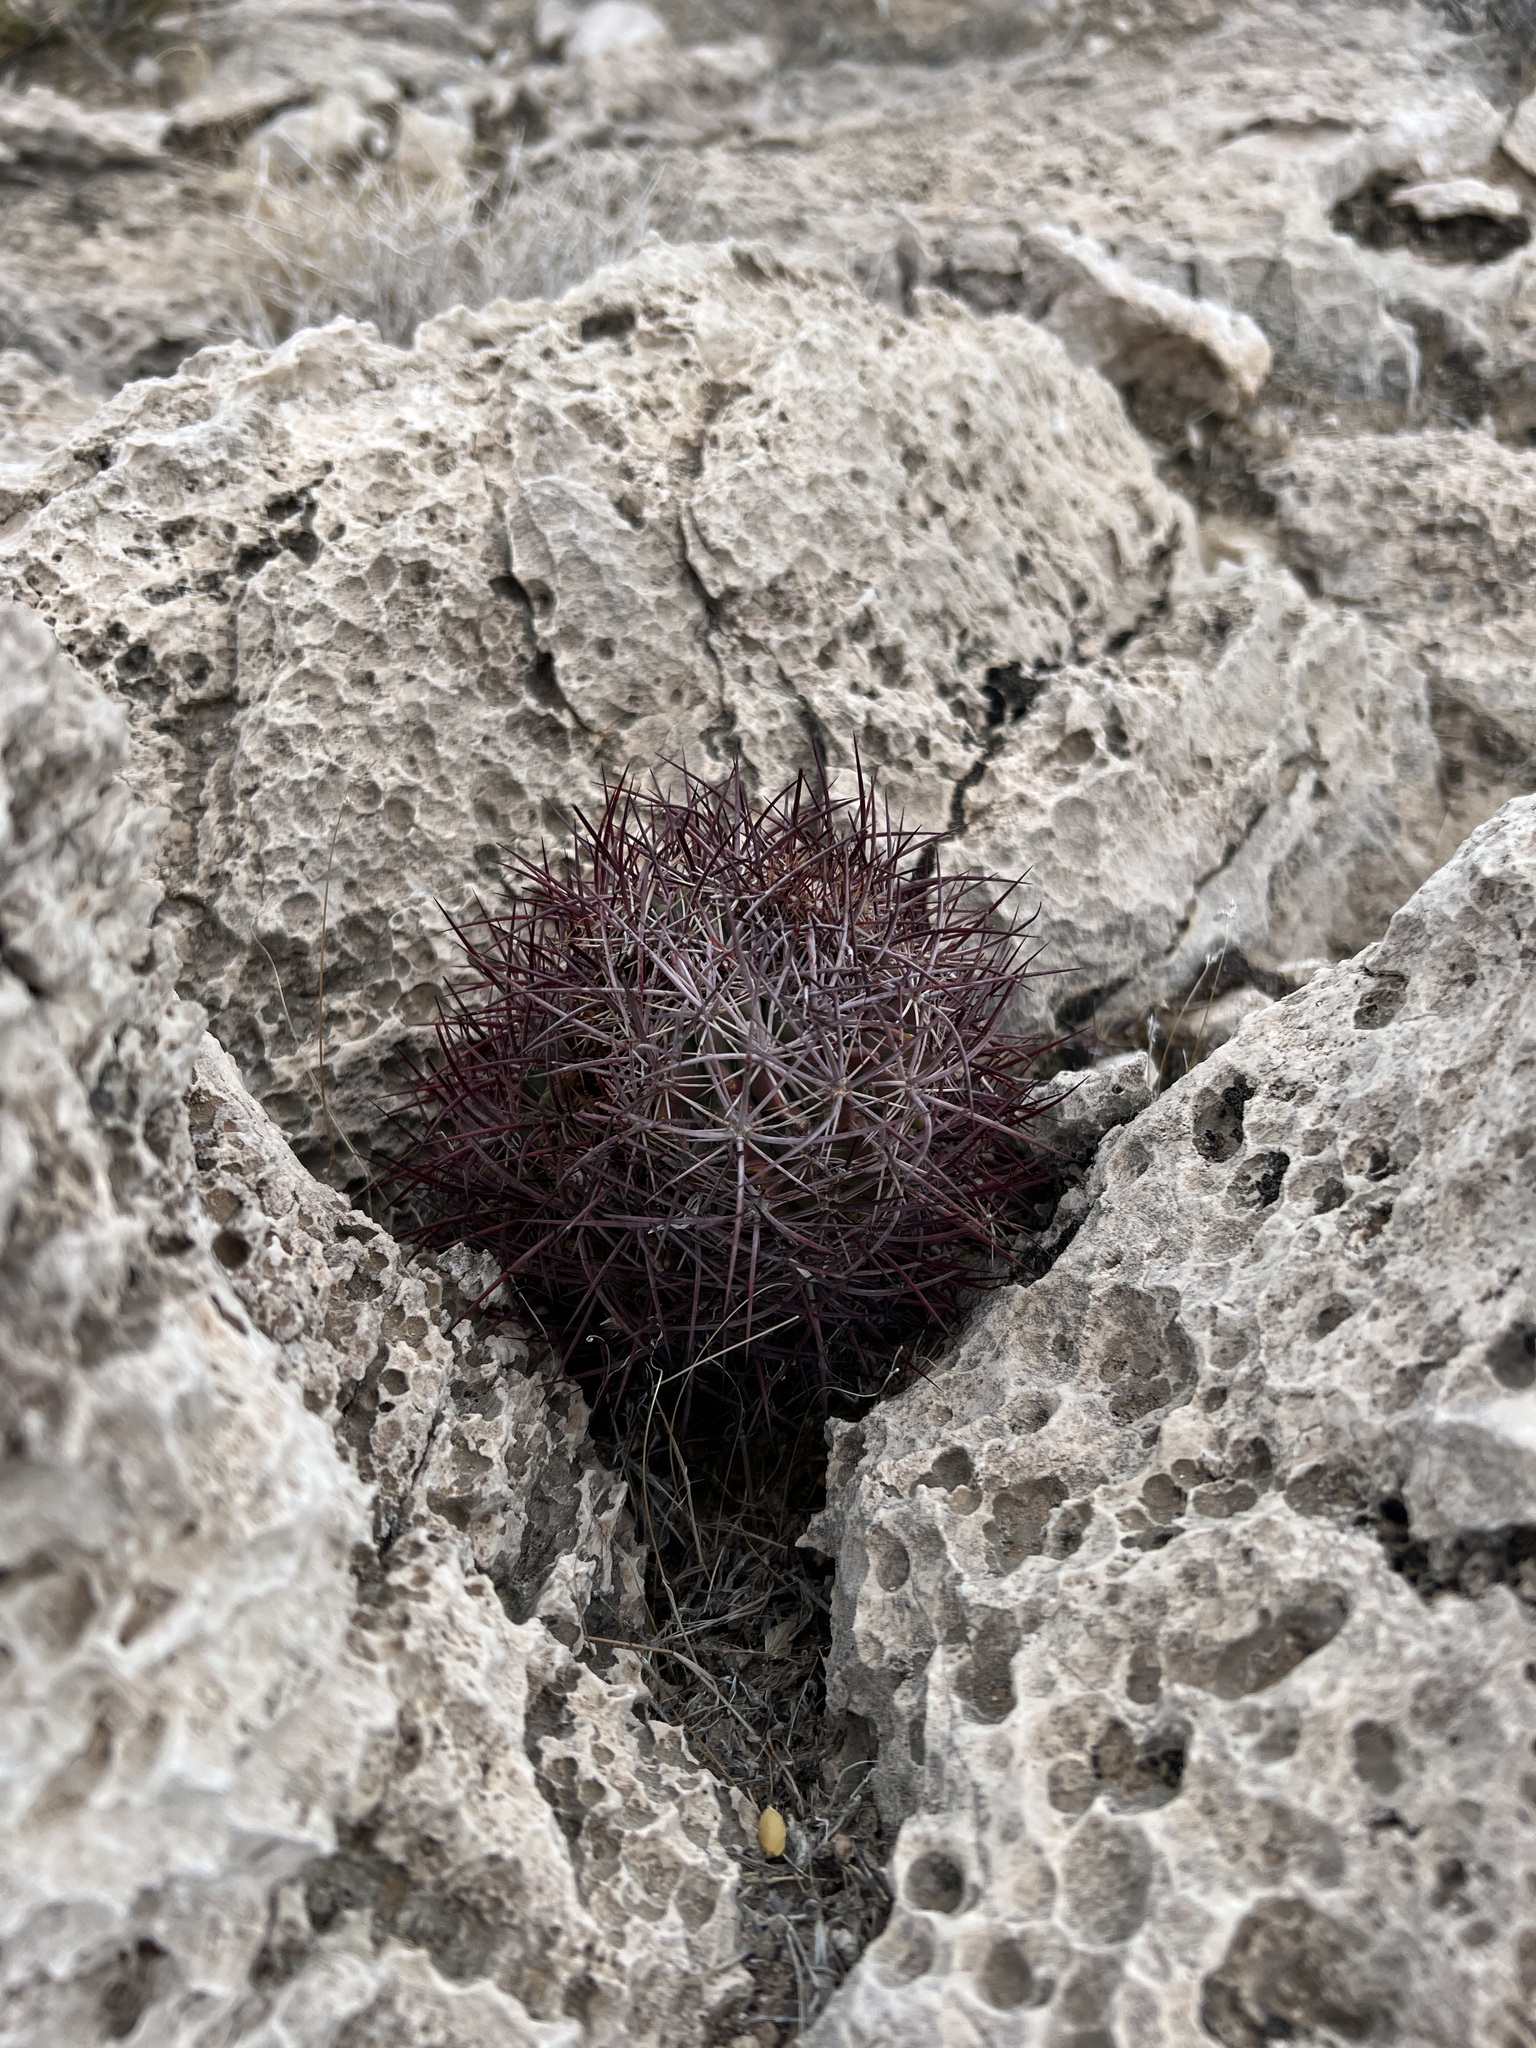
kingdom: Plantae
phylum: Tracheophyta
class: Magnoliopsida
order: Caryophyllales
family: Cactaceae
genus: Sclerocactus
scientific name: Sclerocactus johnsonii
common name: Eight-spine fishhook cactus
